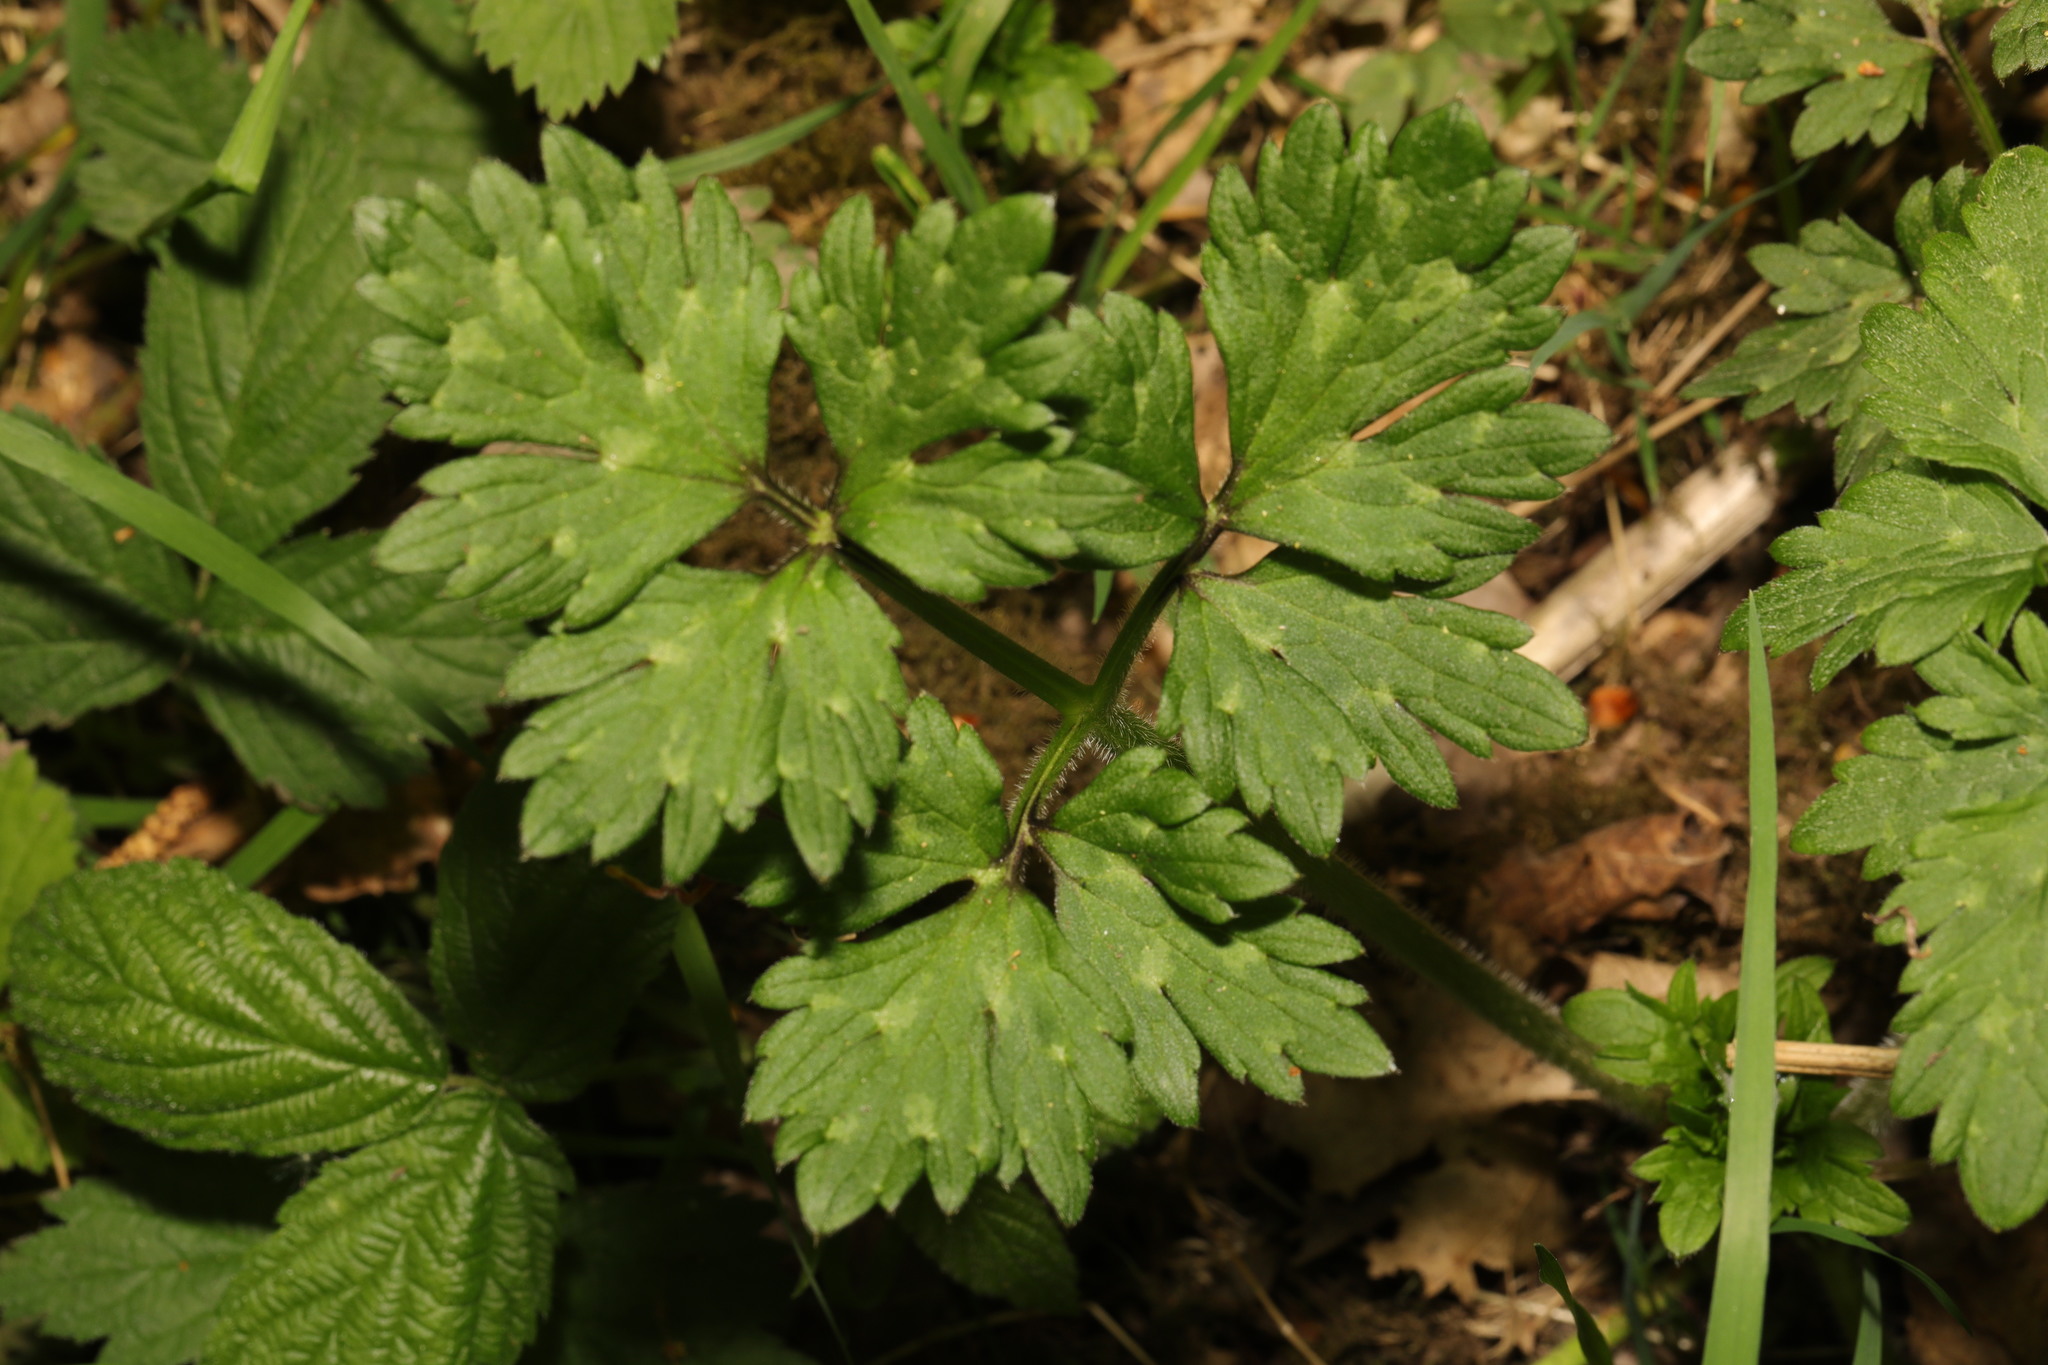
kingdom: Plantae
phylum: Tracheophyta
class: Magnoliopsida
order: Ranunculales
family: Ranunculaceae
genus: Ranunculus
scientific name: Ranunculus repens
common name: Creeping buttercup
